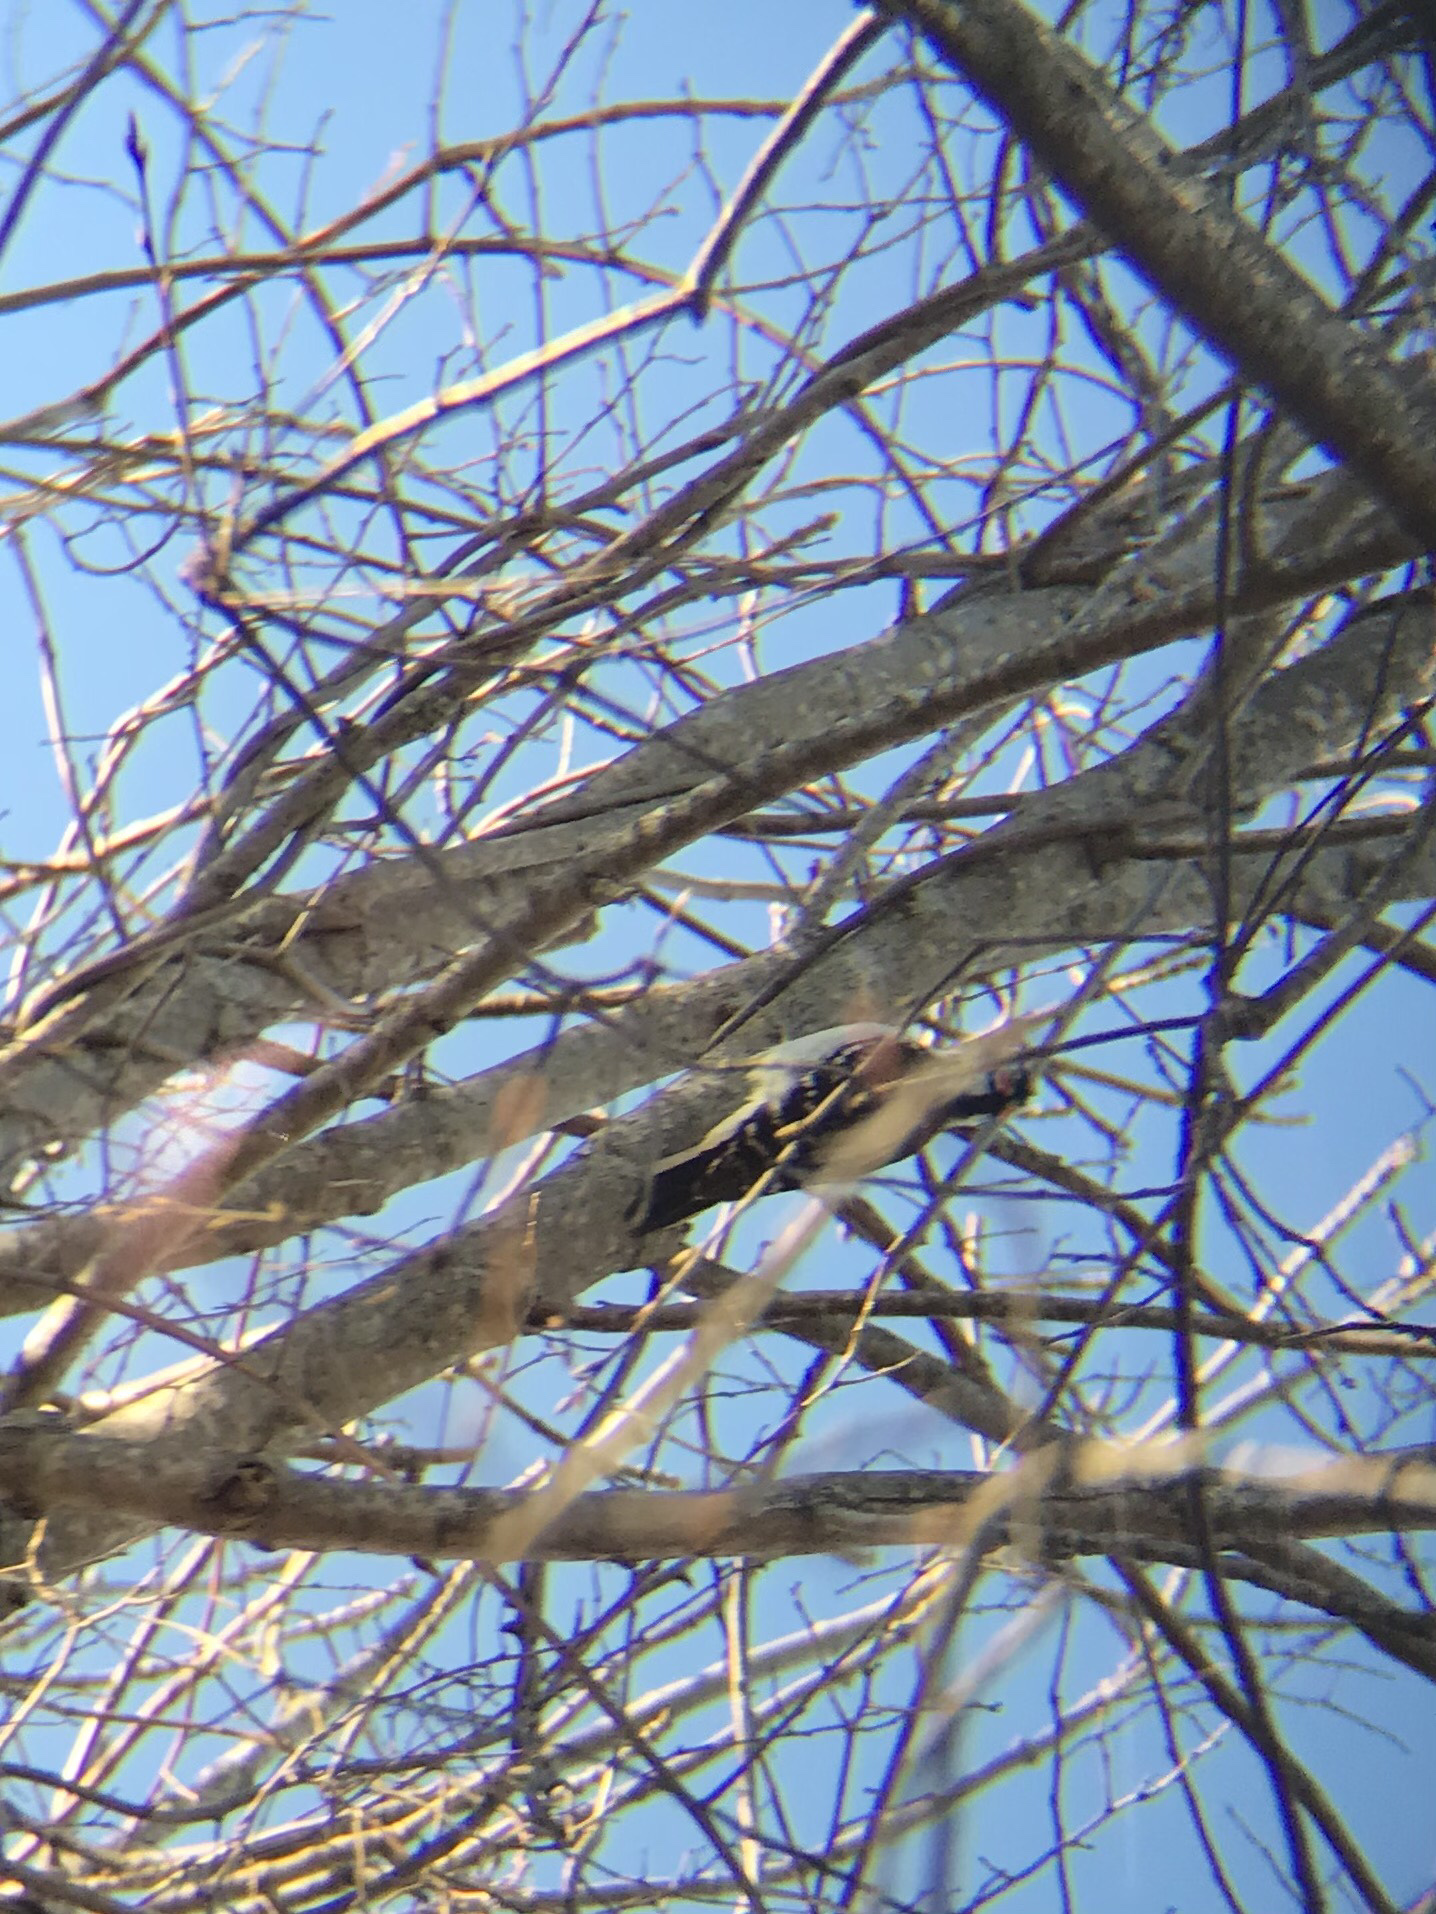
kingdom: Animalia
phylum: Chordata
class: Aves
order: Piciformes
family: Picidae
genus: Leuconotopicus
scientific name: Leuconotopicus villosus
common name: Hairy woodpecker
